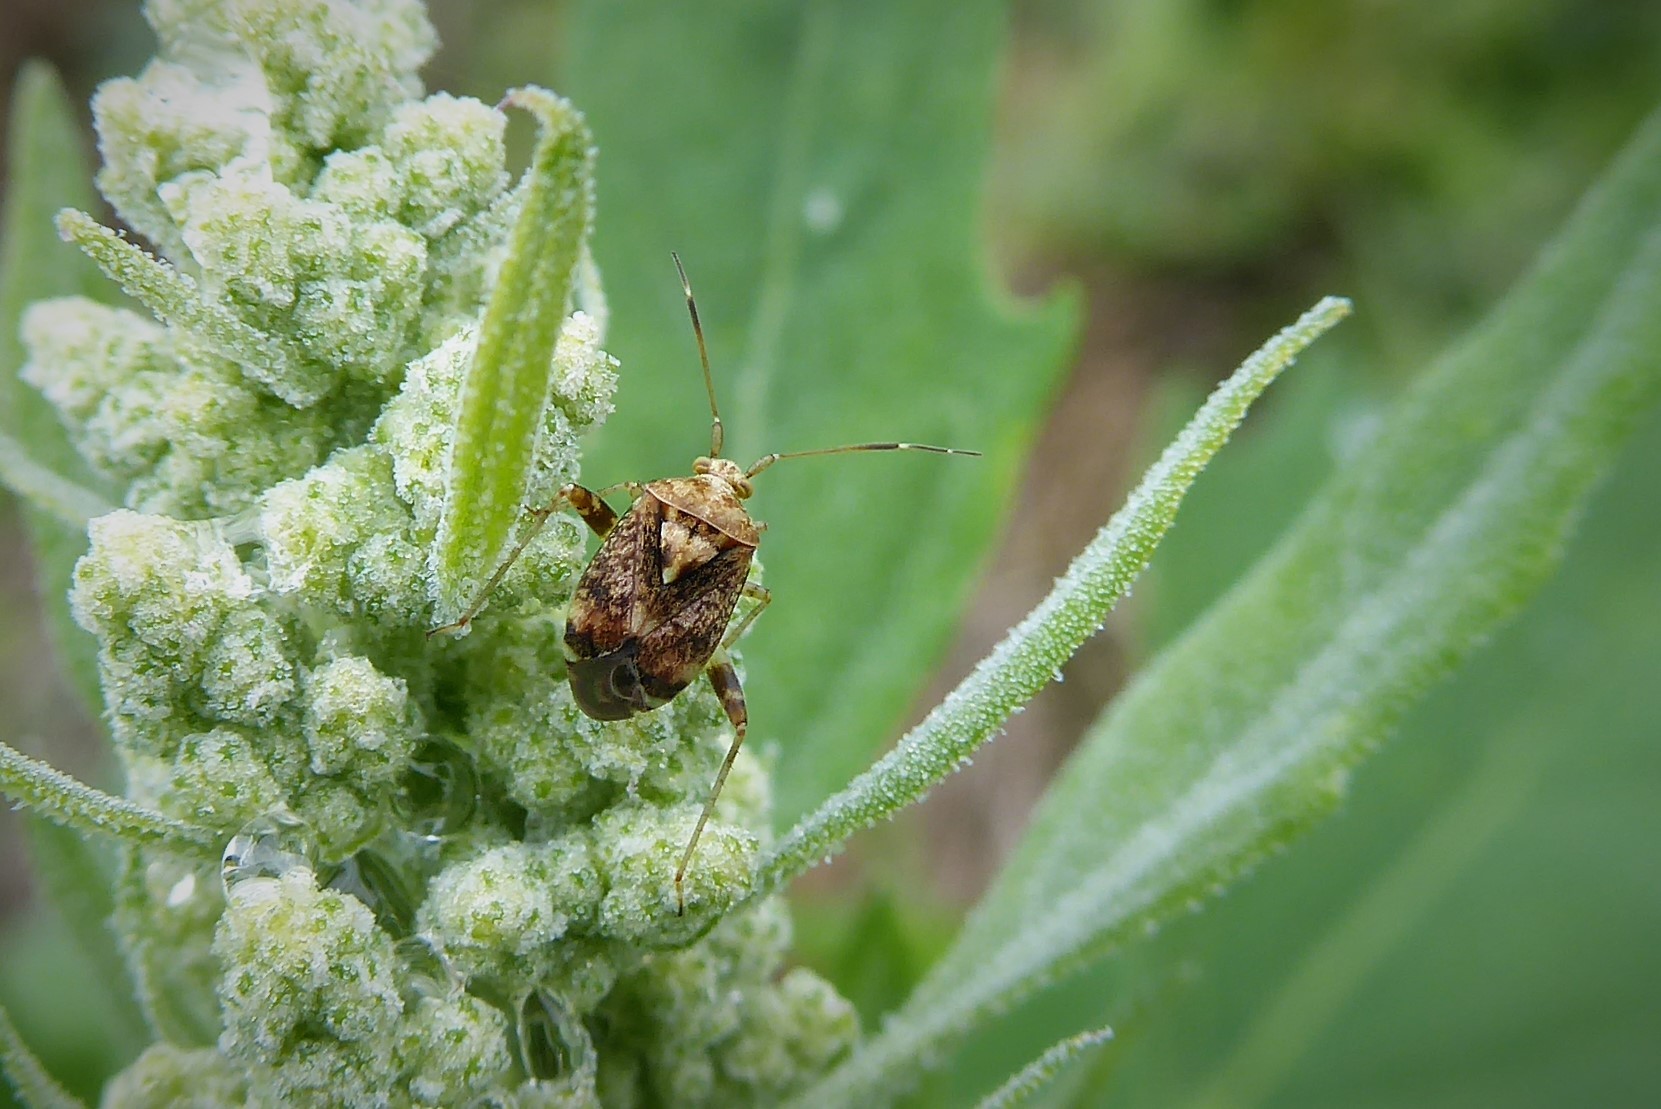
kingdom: Animalia
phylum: Arthropoda
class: Insecta
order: Hemiptera
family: Miridae
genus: Sidnia
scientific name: Sidnia kinbergi
